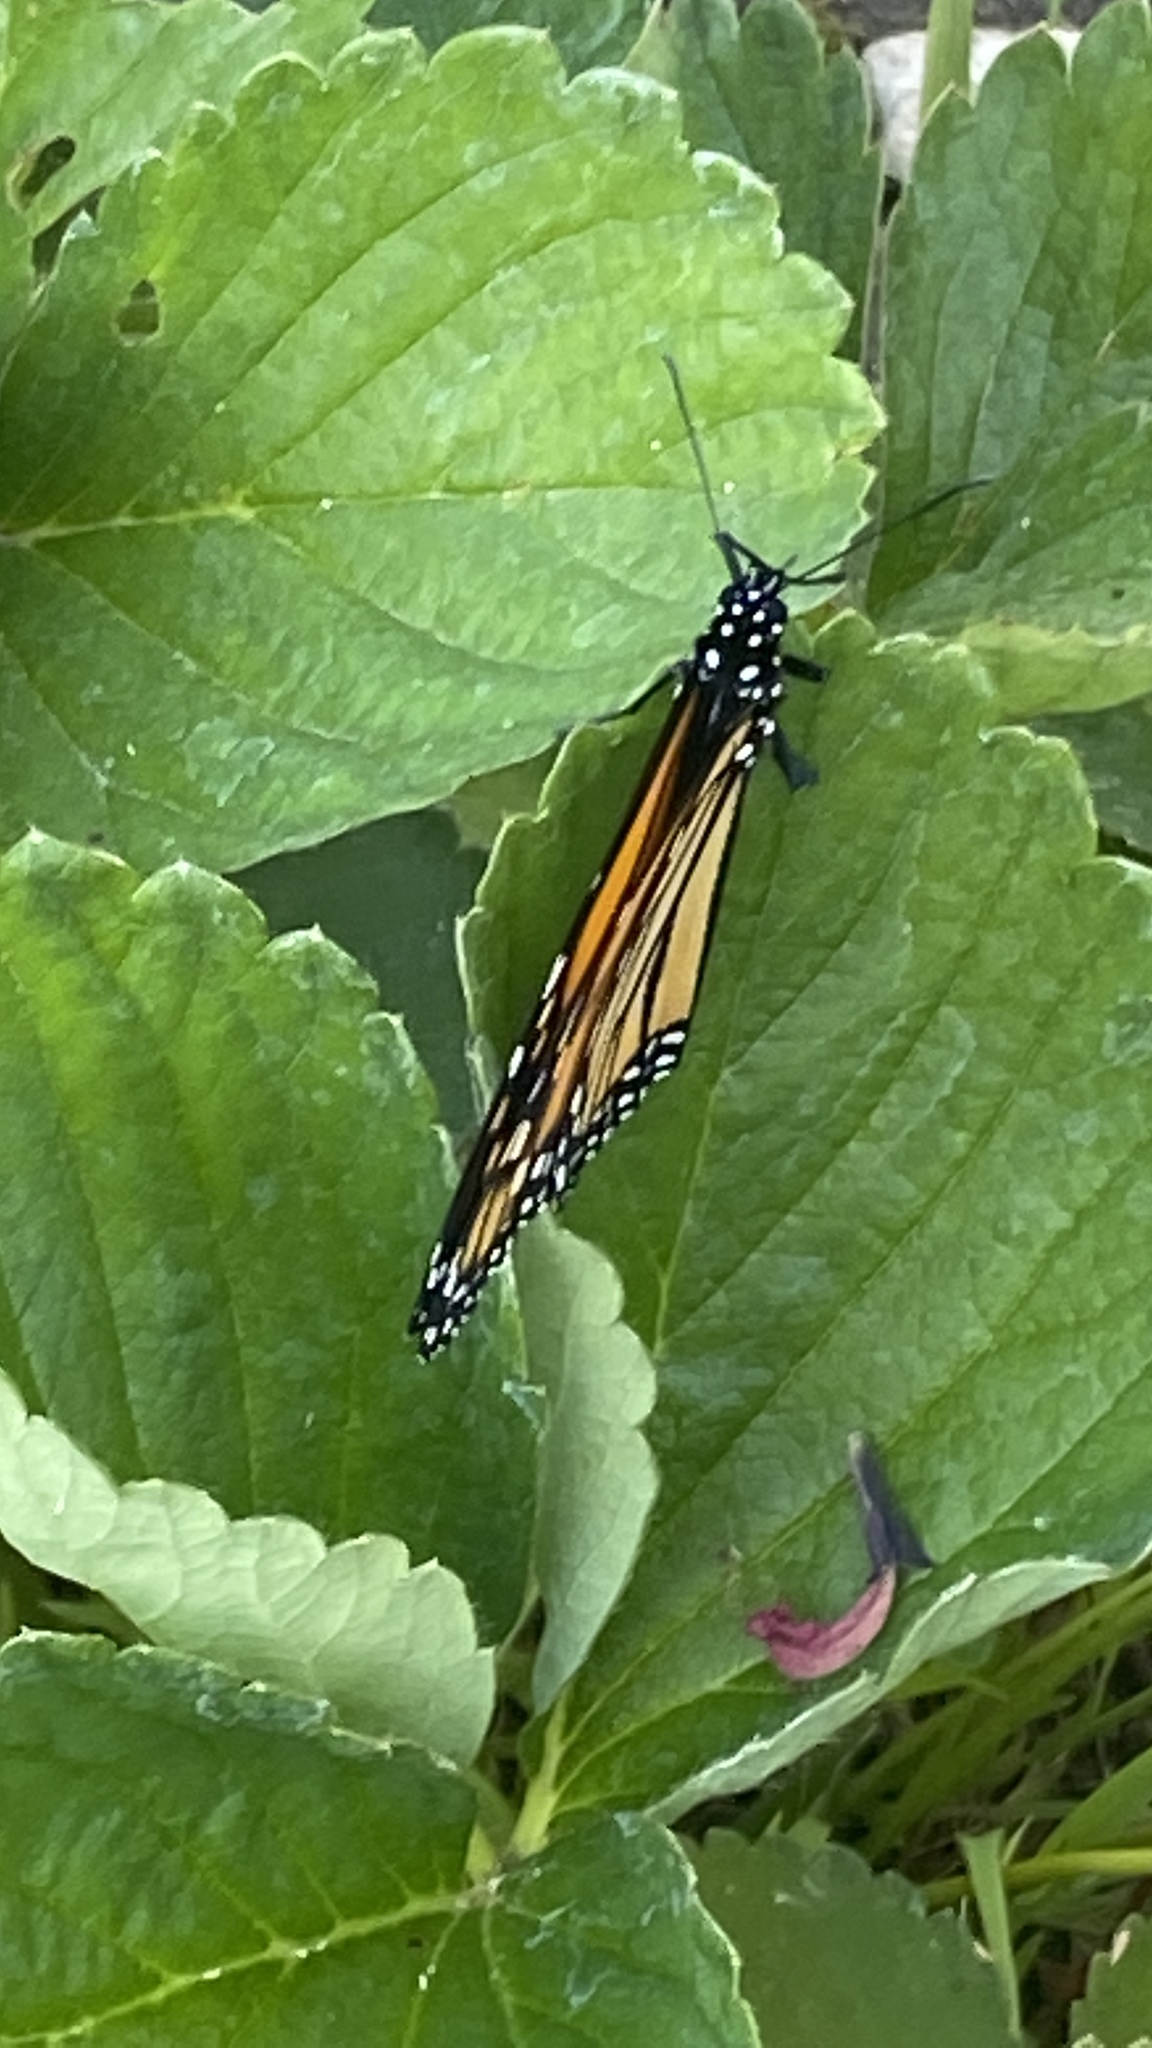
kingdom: Animalia
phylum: Arthropoda
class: Insecta
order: Lepidoptera
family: Nymphalidae
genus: Danaus
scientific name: Danaus plexippus
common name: Monarch
